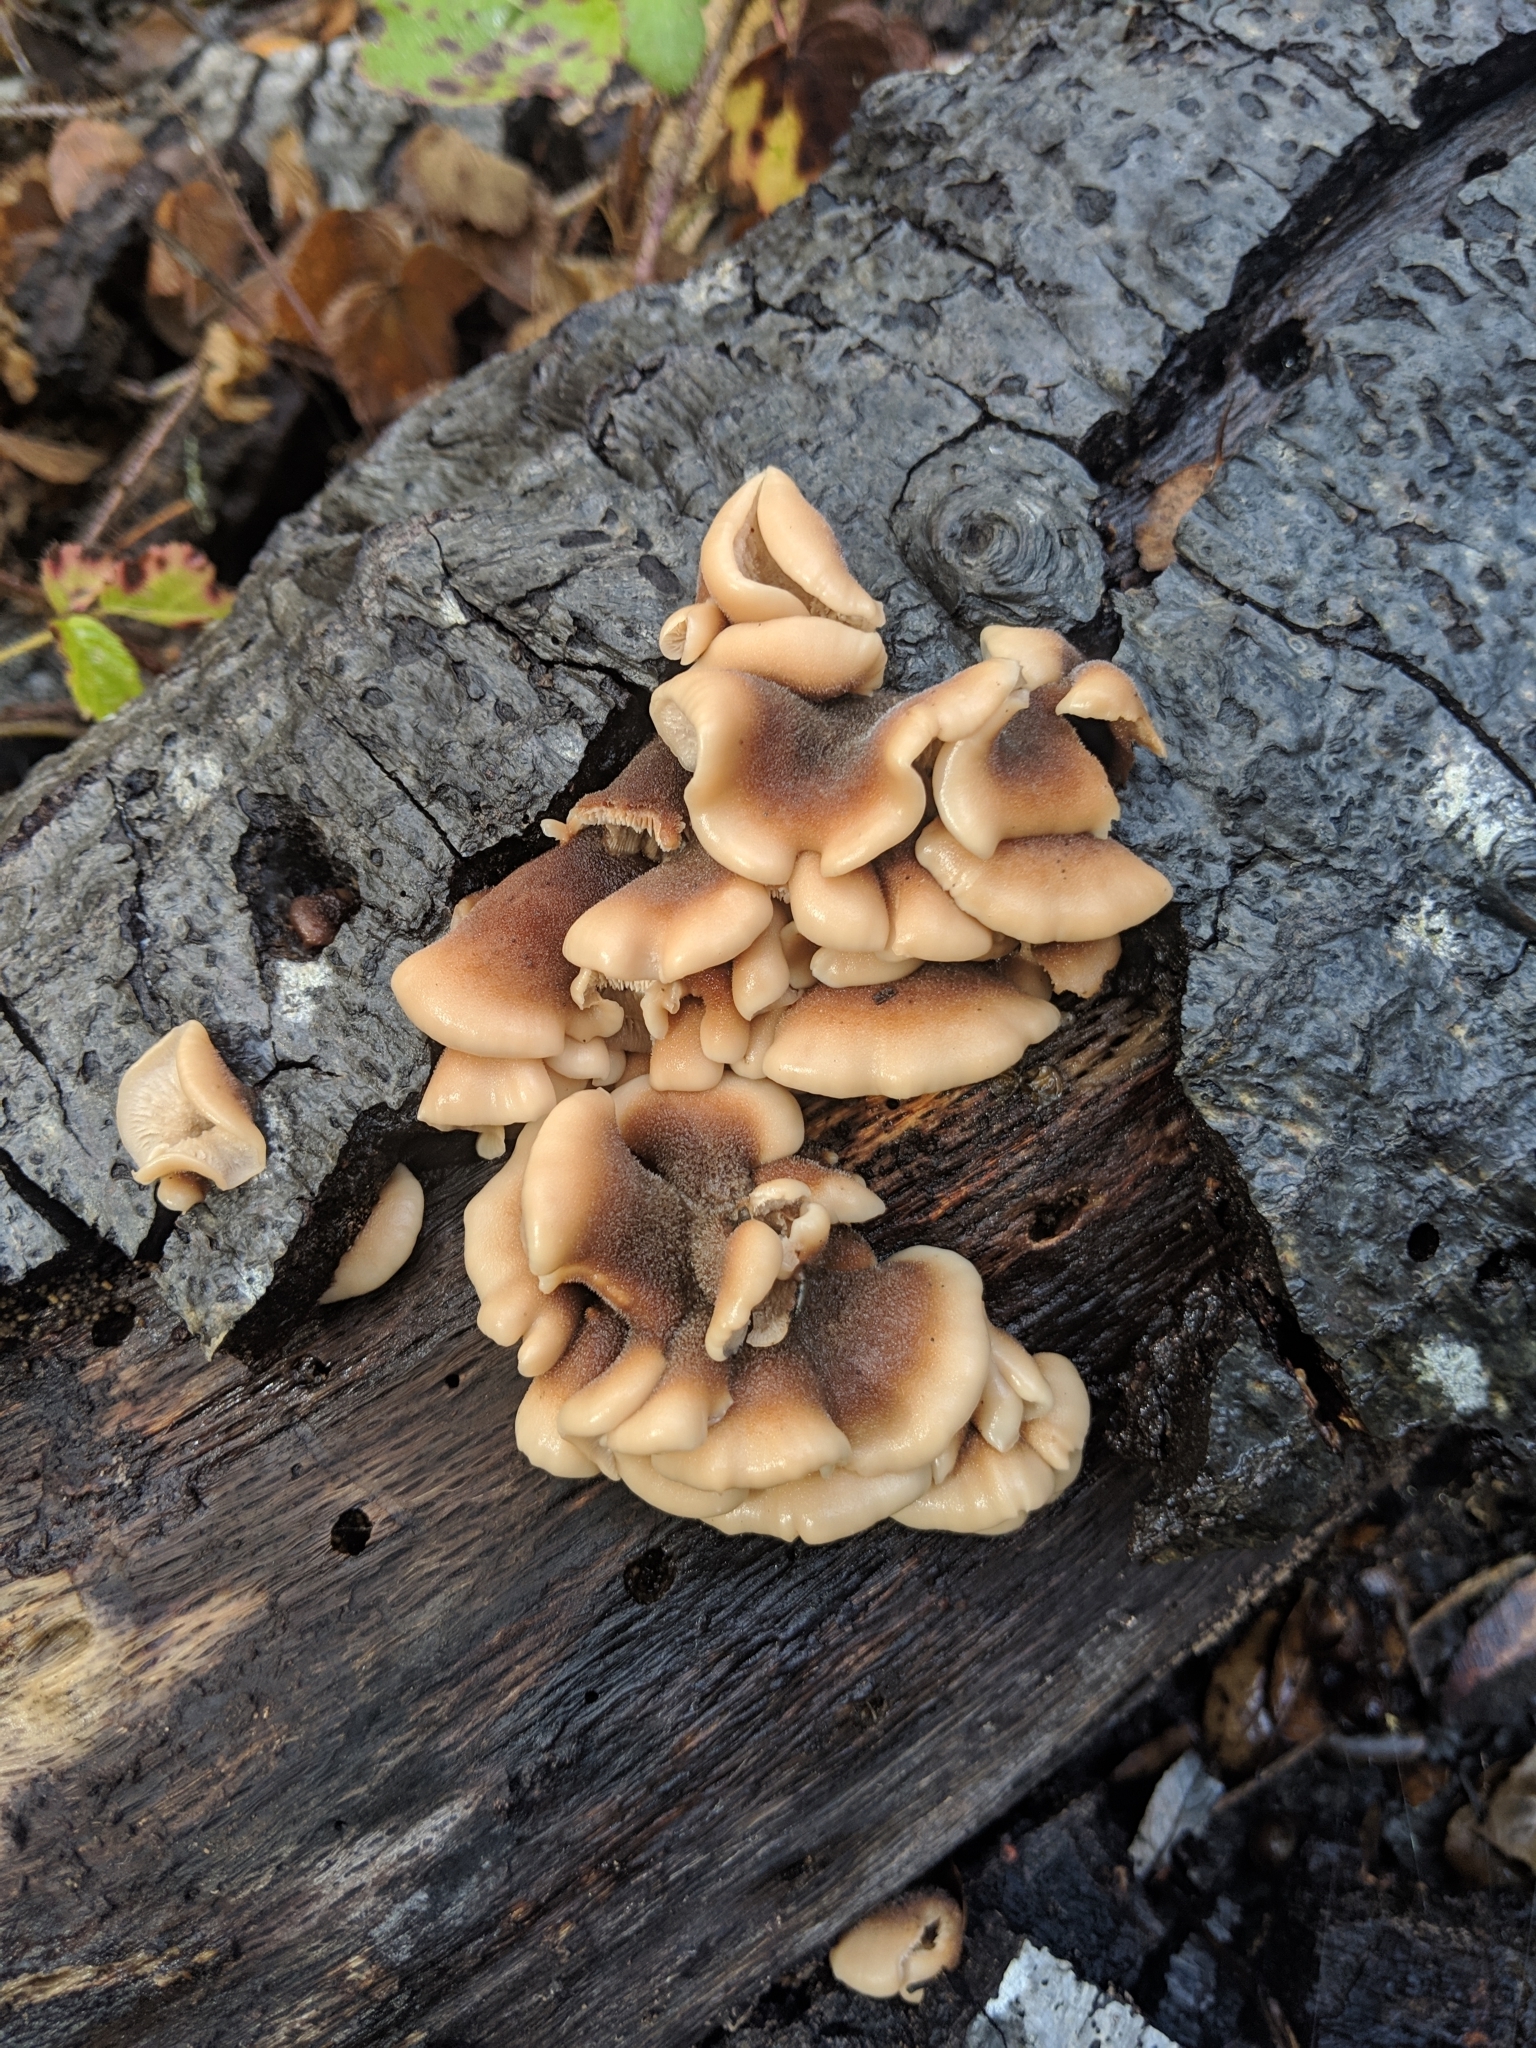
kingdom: Fungi
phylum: Basidiomycota
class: Agaricomycetes
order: Russulales
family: Auriscalpiaceae
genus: Lentinellus
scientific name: Lentinellus ursinus
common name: Bear lentinus
